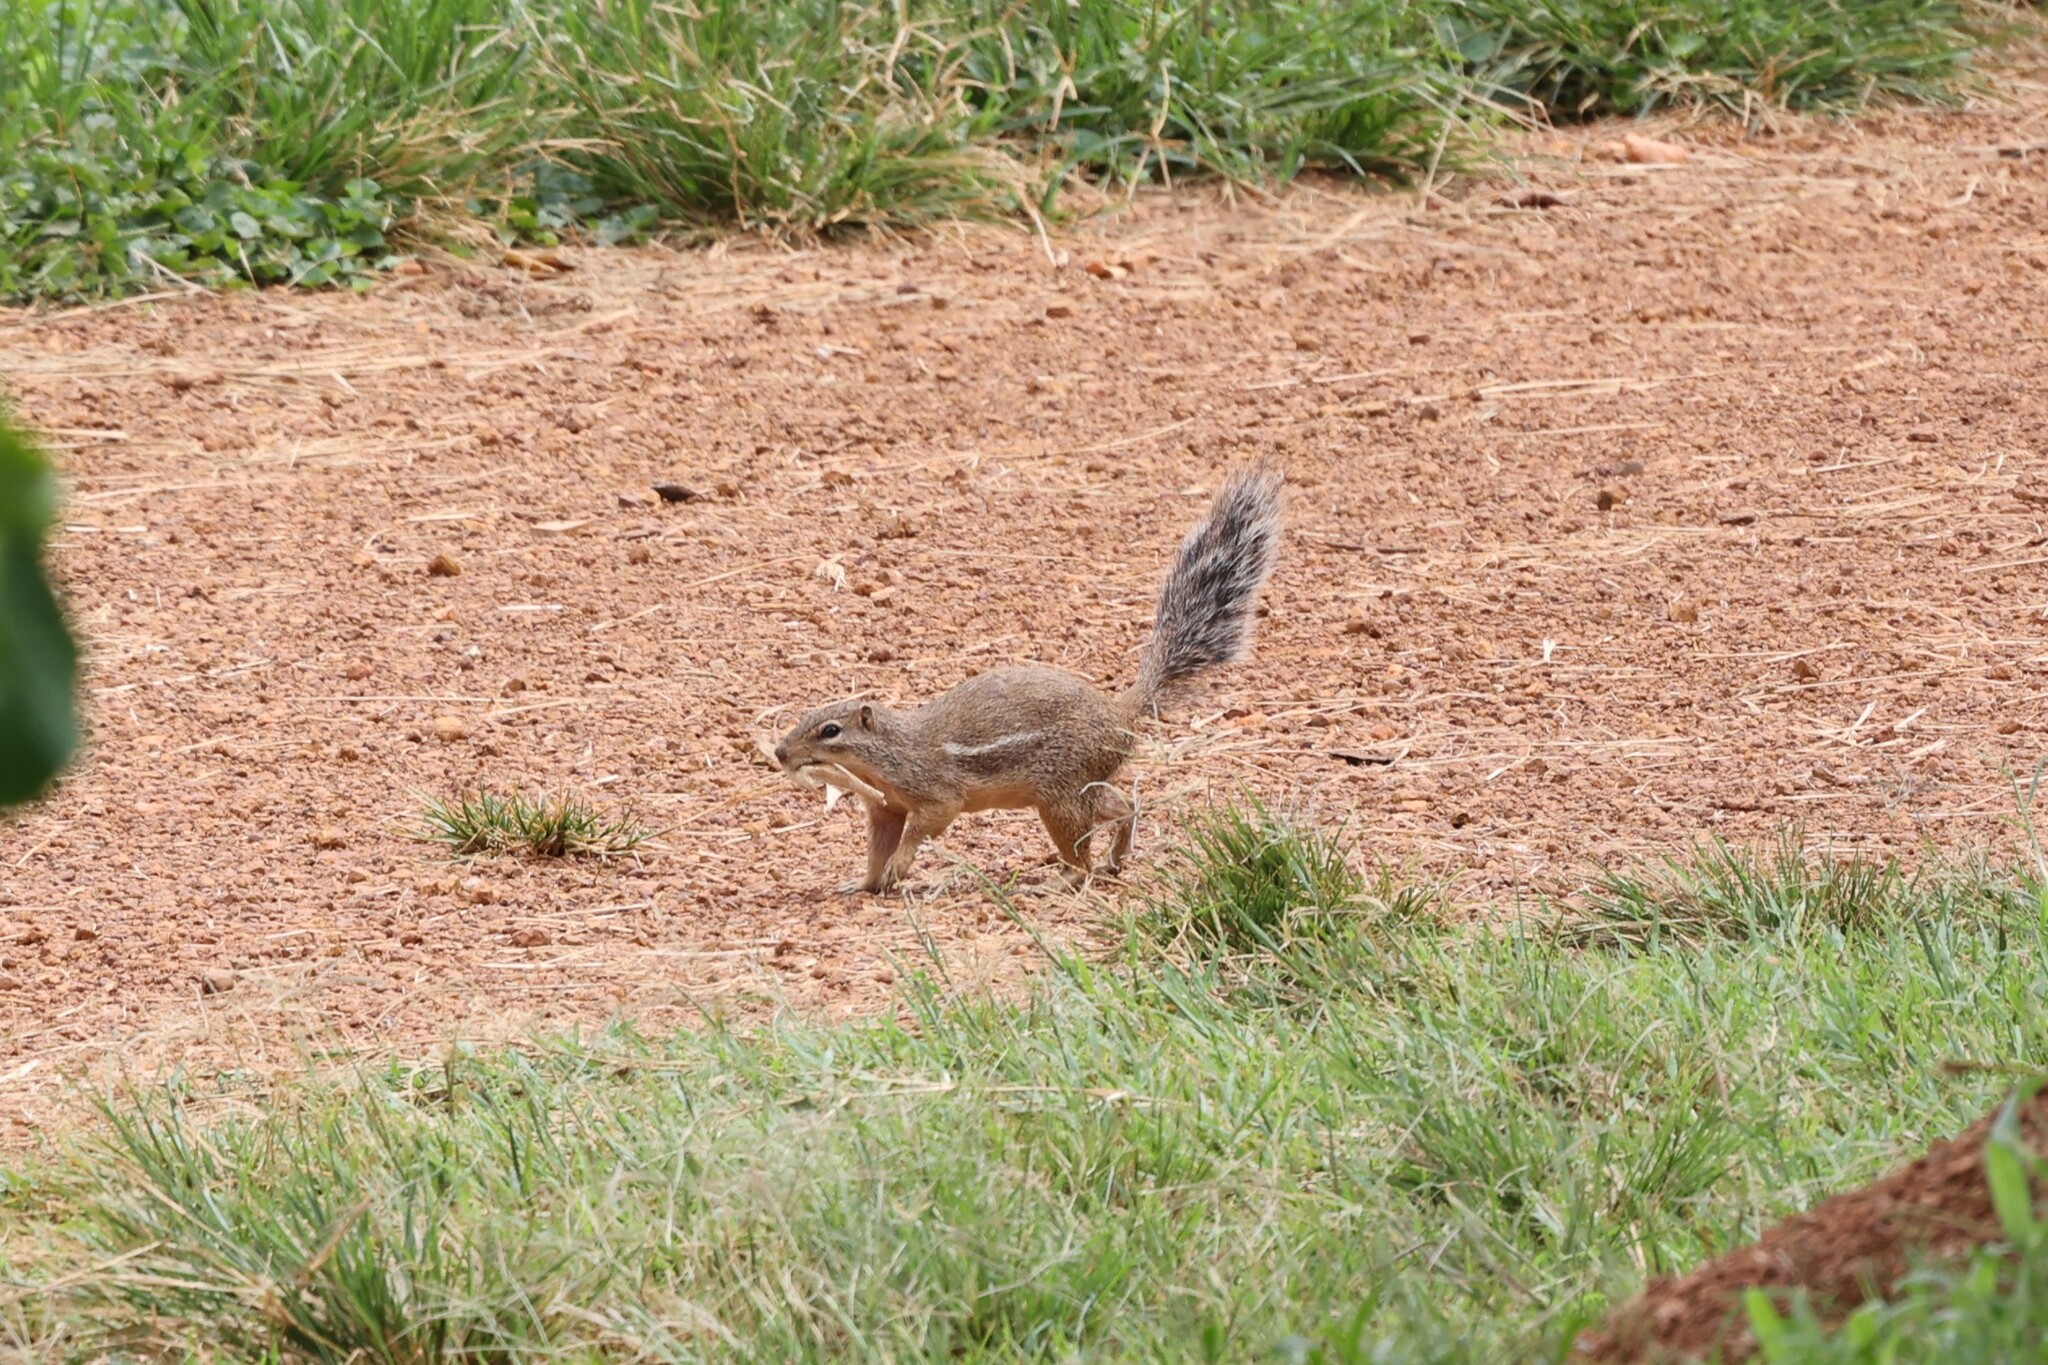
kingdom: Animalia
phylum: Chordata
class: Mammalia
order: Rodentia
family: Sciuridae
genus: Xerus
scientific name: Xerus erythropus
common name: Striped ground squirrel
